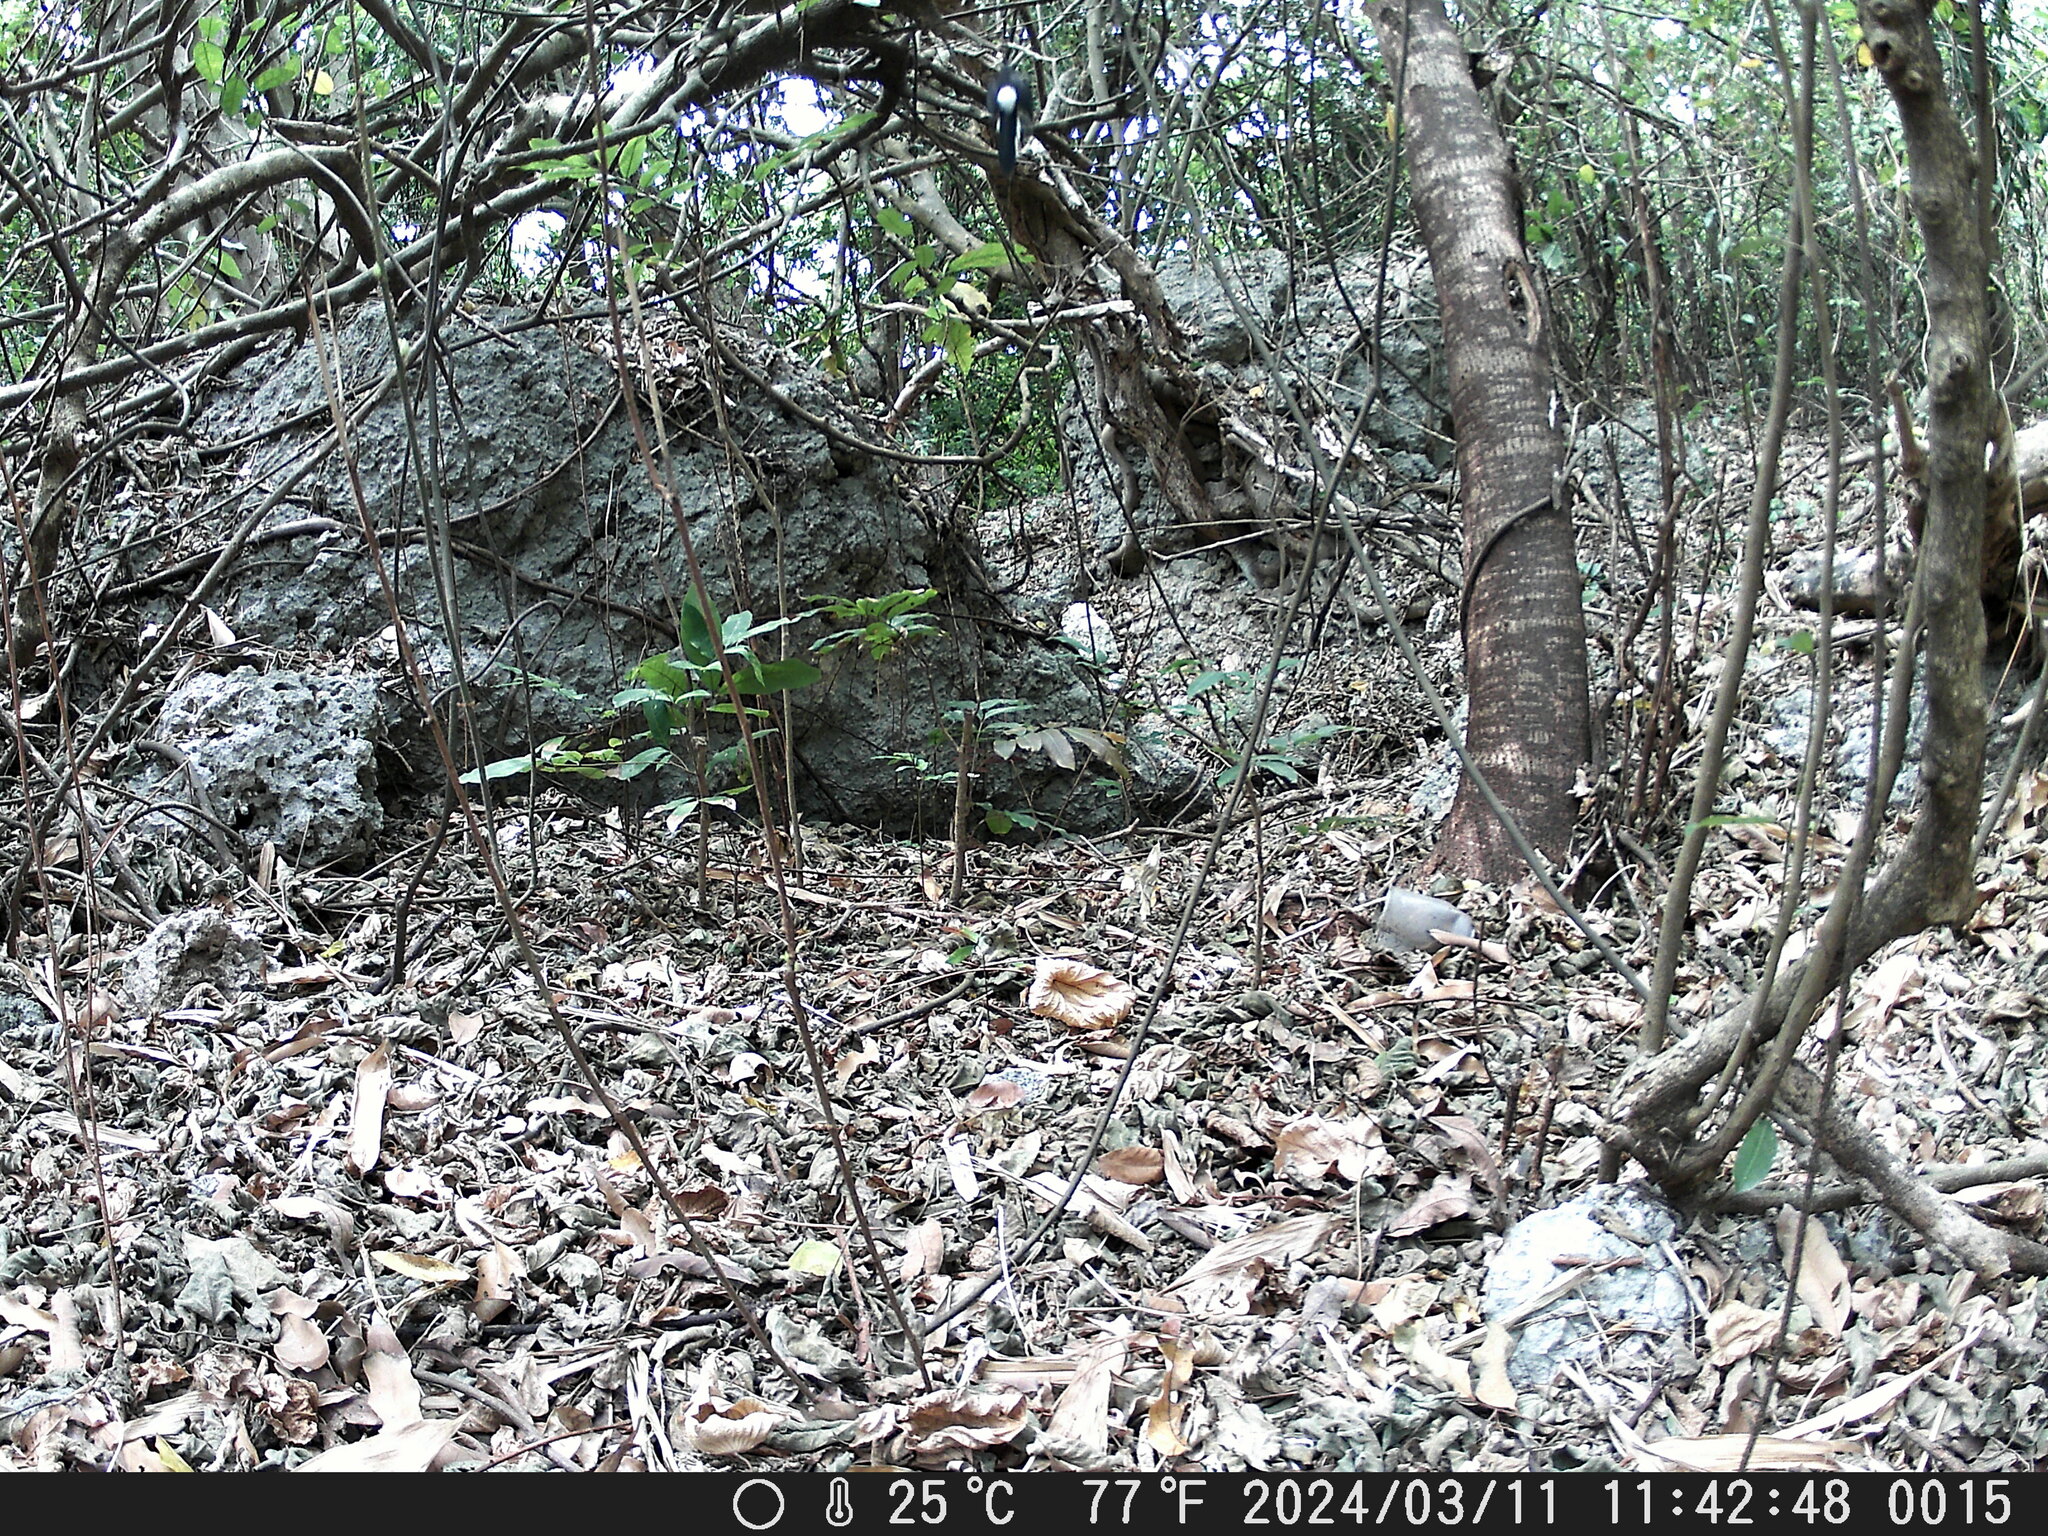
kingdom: Animalia
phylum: Chordata
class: Aves
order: Passeriformes
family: Muscicapidae
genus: Copsychus
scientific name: Copsychus malabaricus
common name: White-rumped shama
